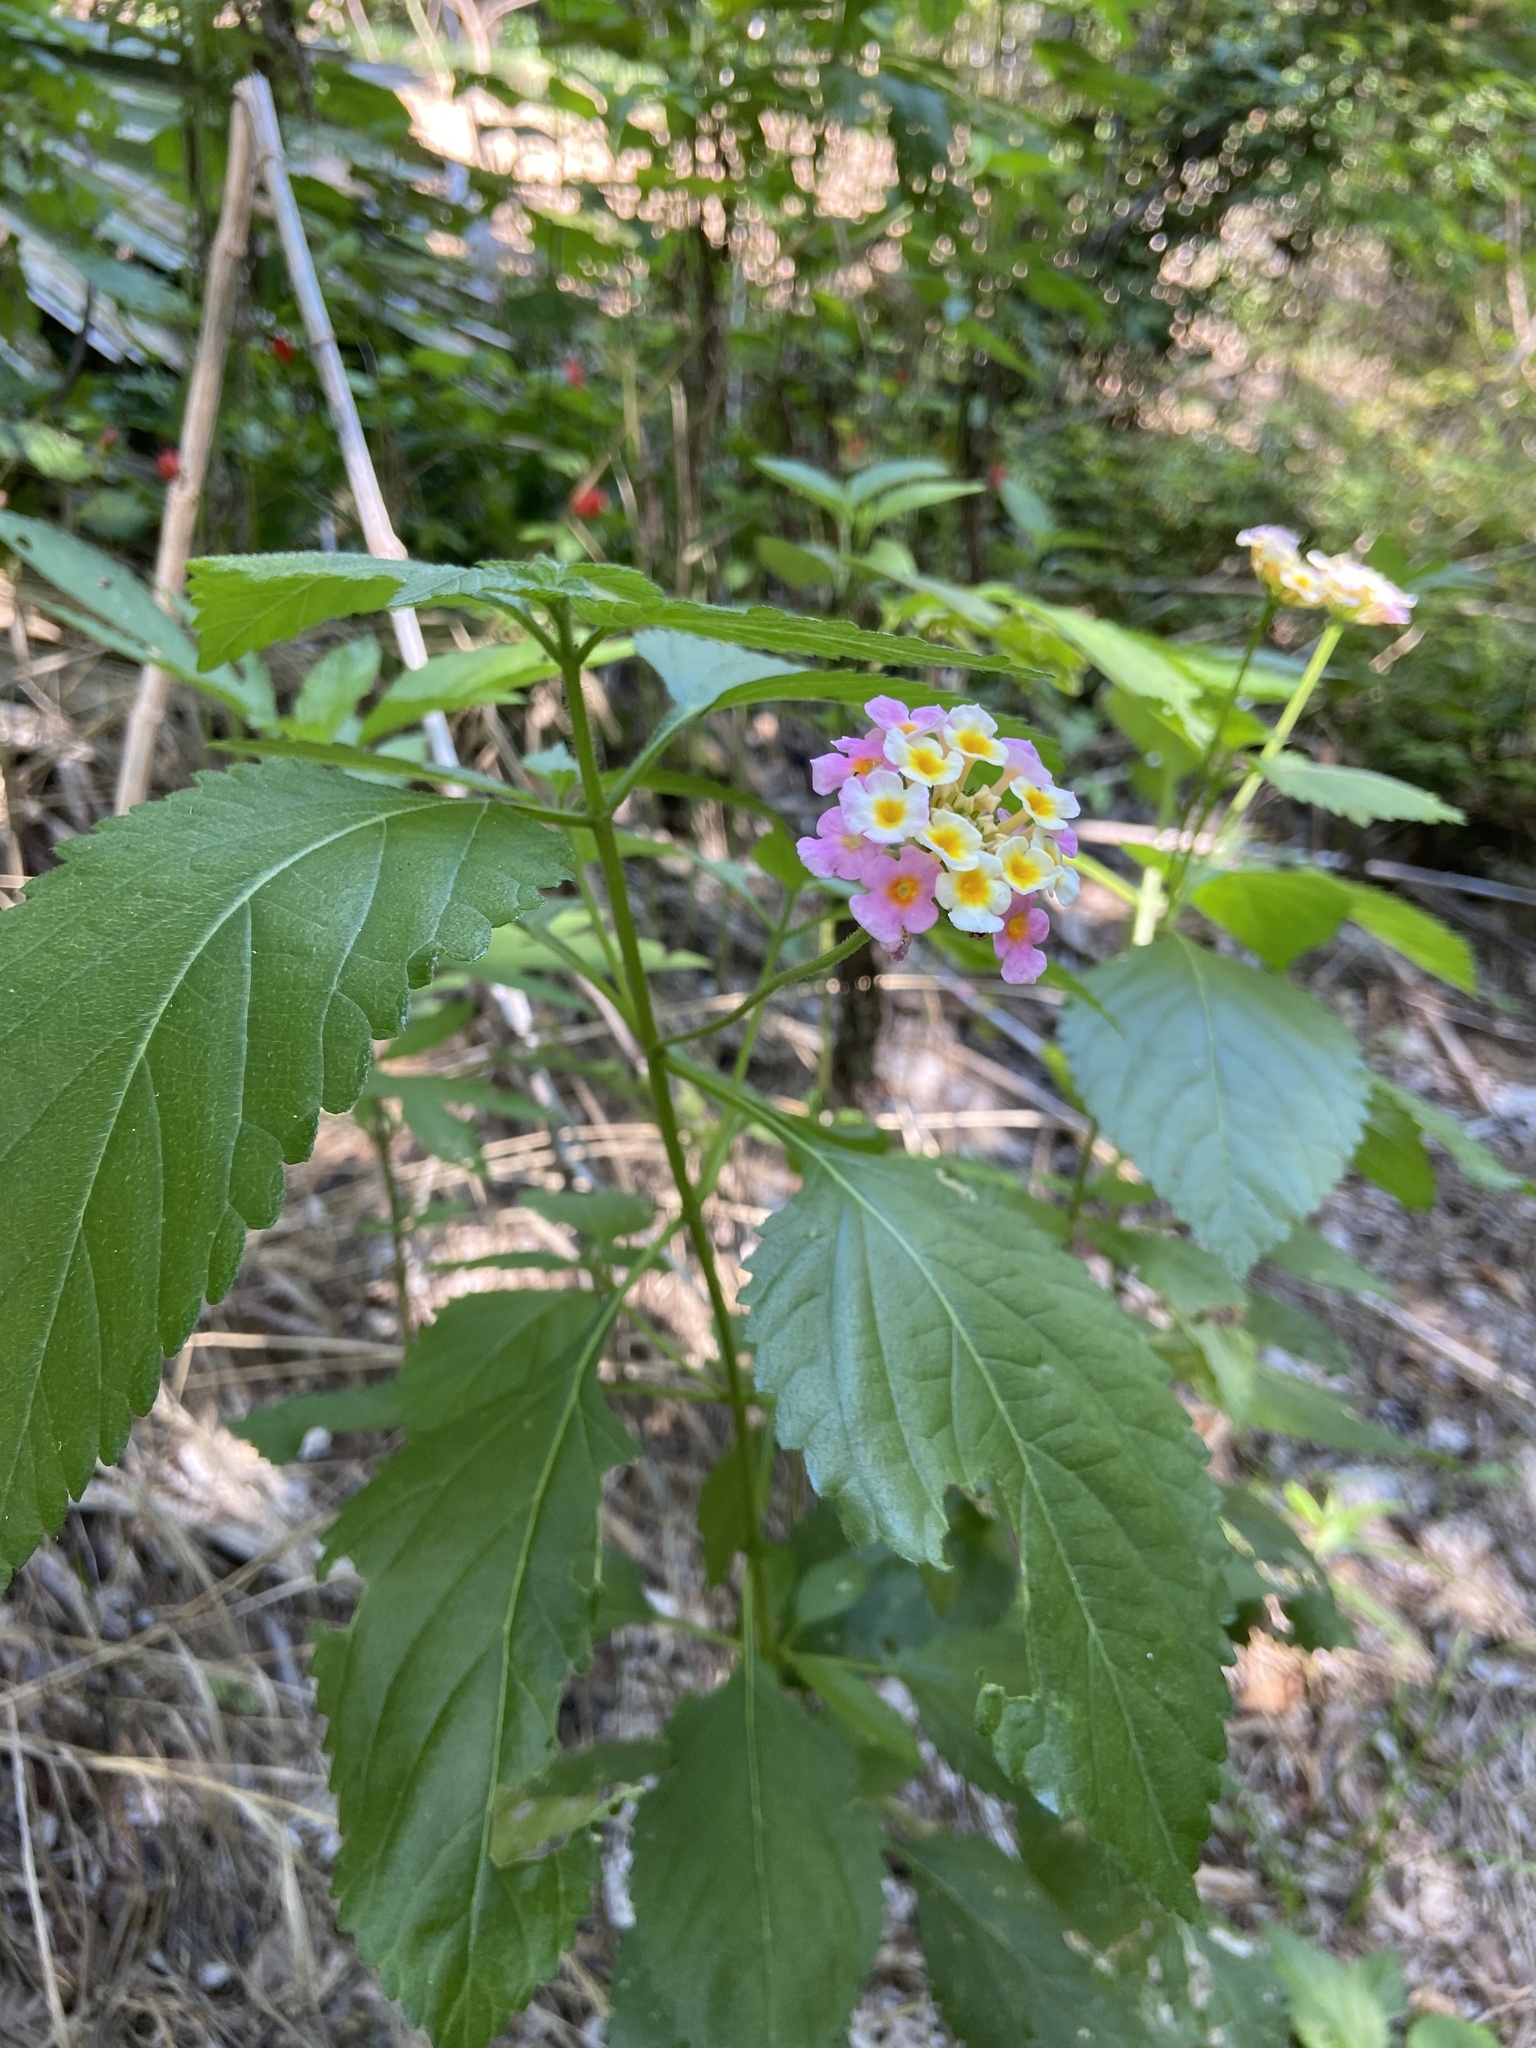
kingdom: Plantae
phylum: Tracheophyta
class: Magnoliopsida
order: Lamiales
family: Verbenaceae
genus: Lantana
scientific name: Lantana strigocamara
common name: Lantana
